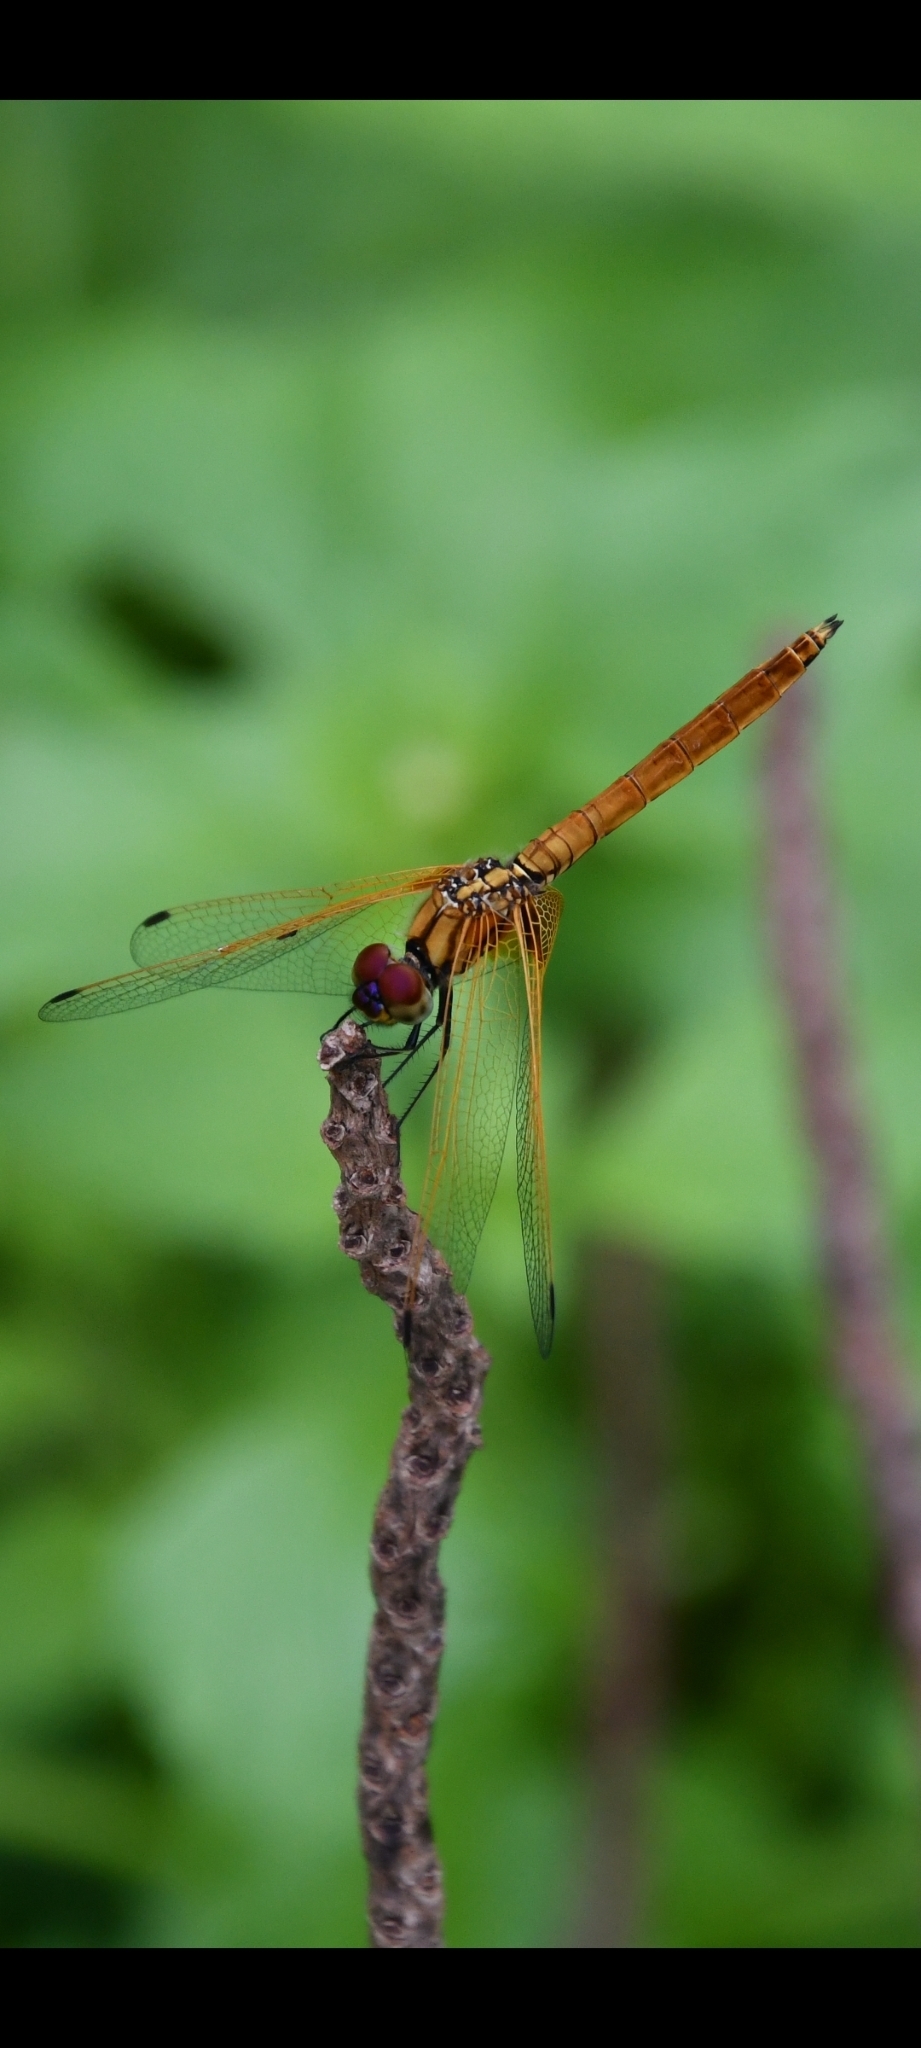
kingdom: Animalia
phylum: Arthropoda
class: Insecta
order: Odonata
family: Libellulidae
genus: Trithemis
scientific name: Trithemis aurora
